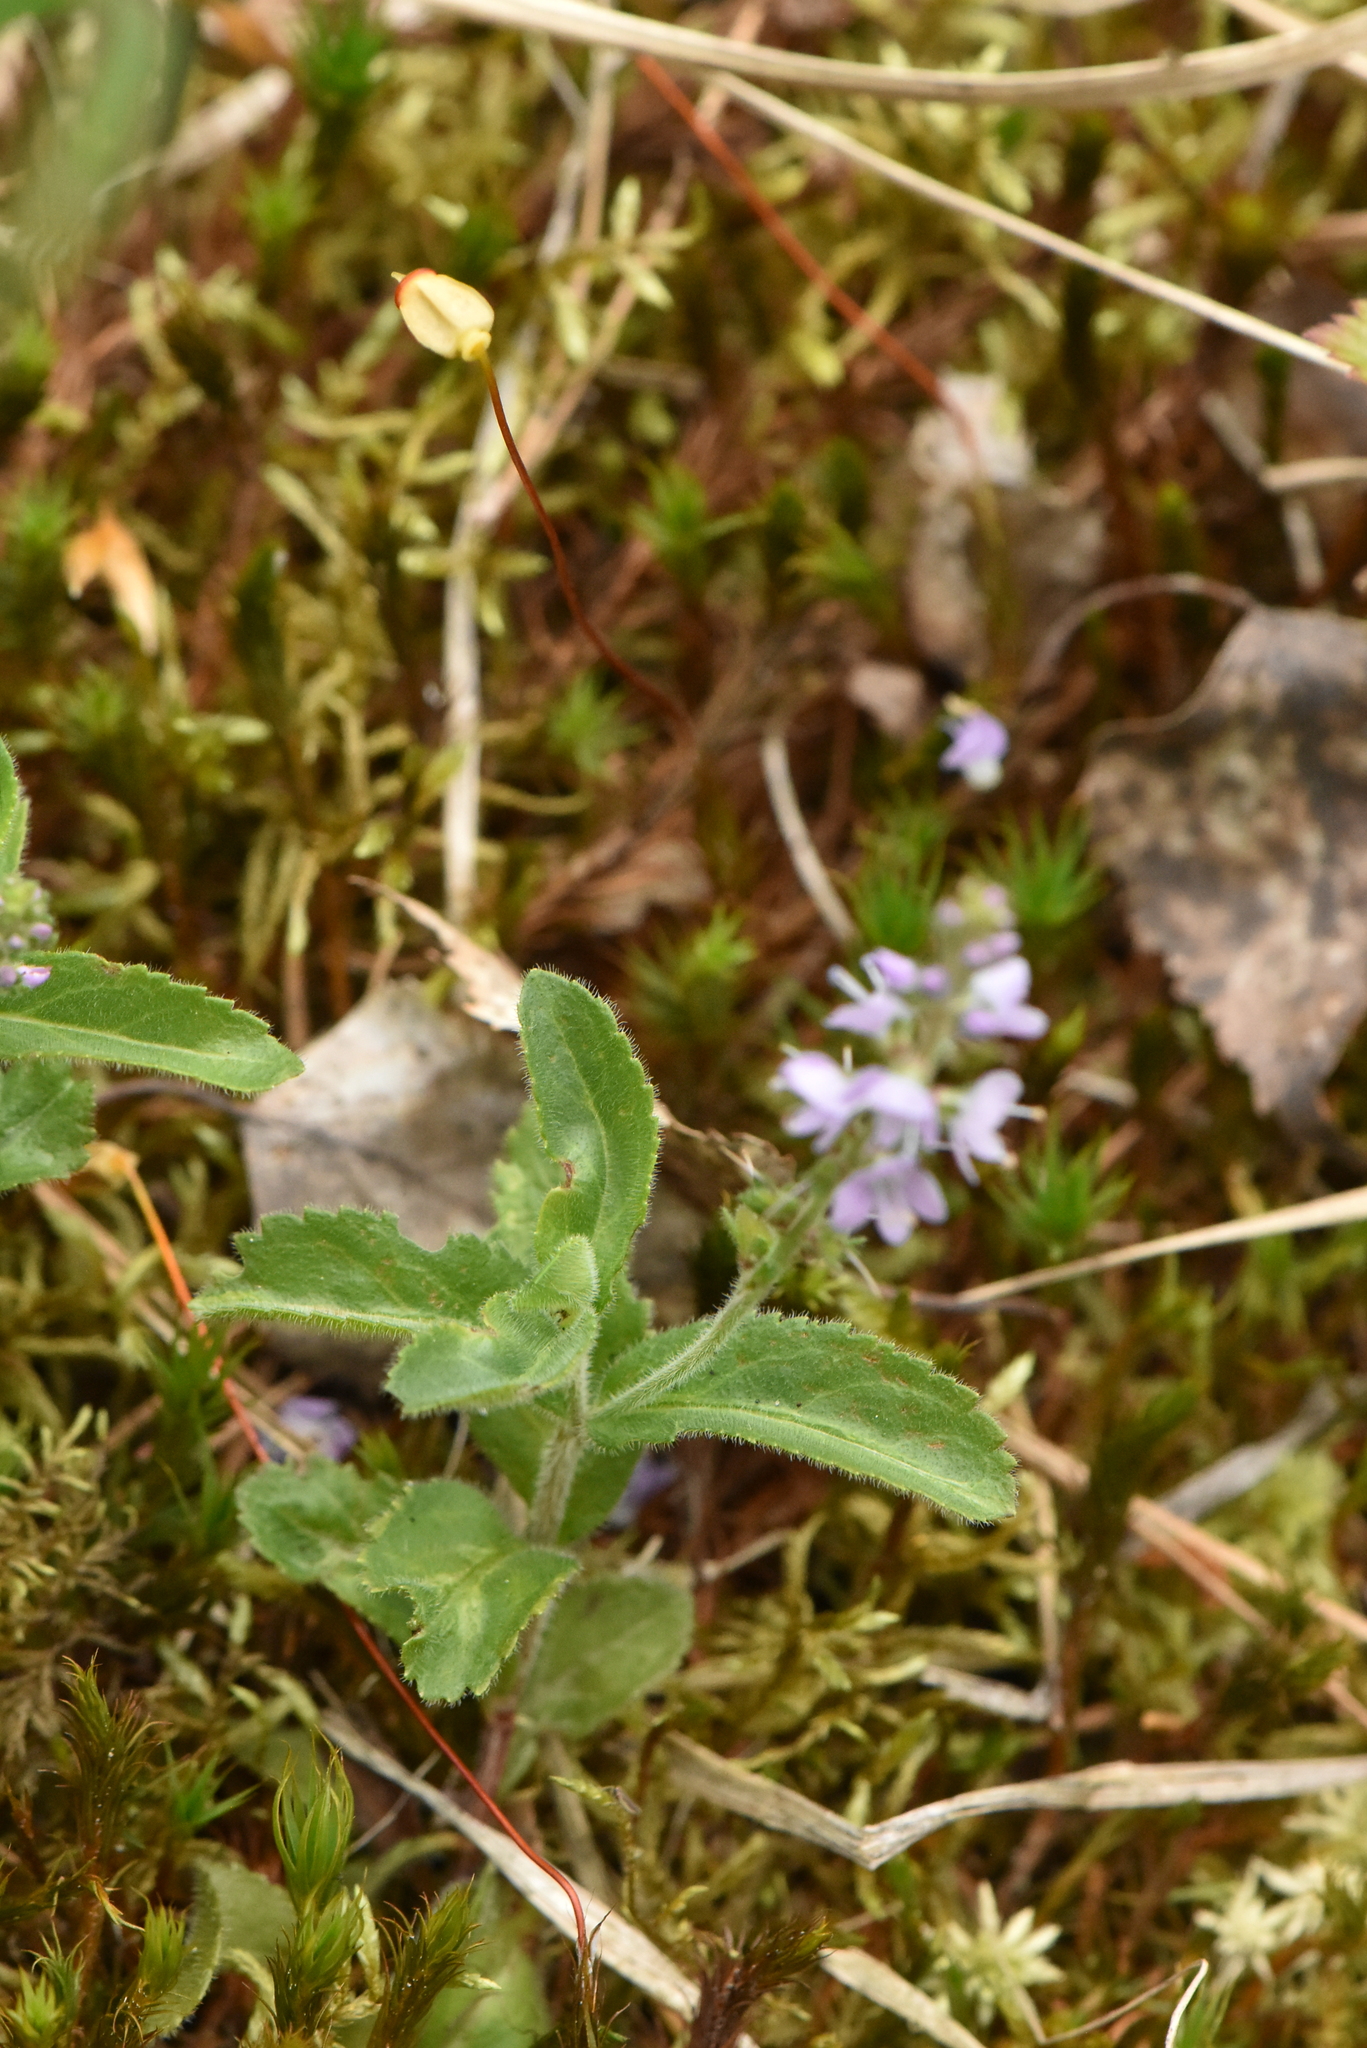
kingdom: Plantae
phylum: Tracheophyta
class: Magnoliopsida
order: Lamiales
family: Plantaginaceae
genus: Veronica
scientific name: Veronica officinalis
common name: Common speedwell
